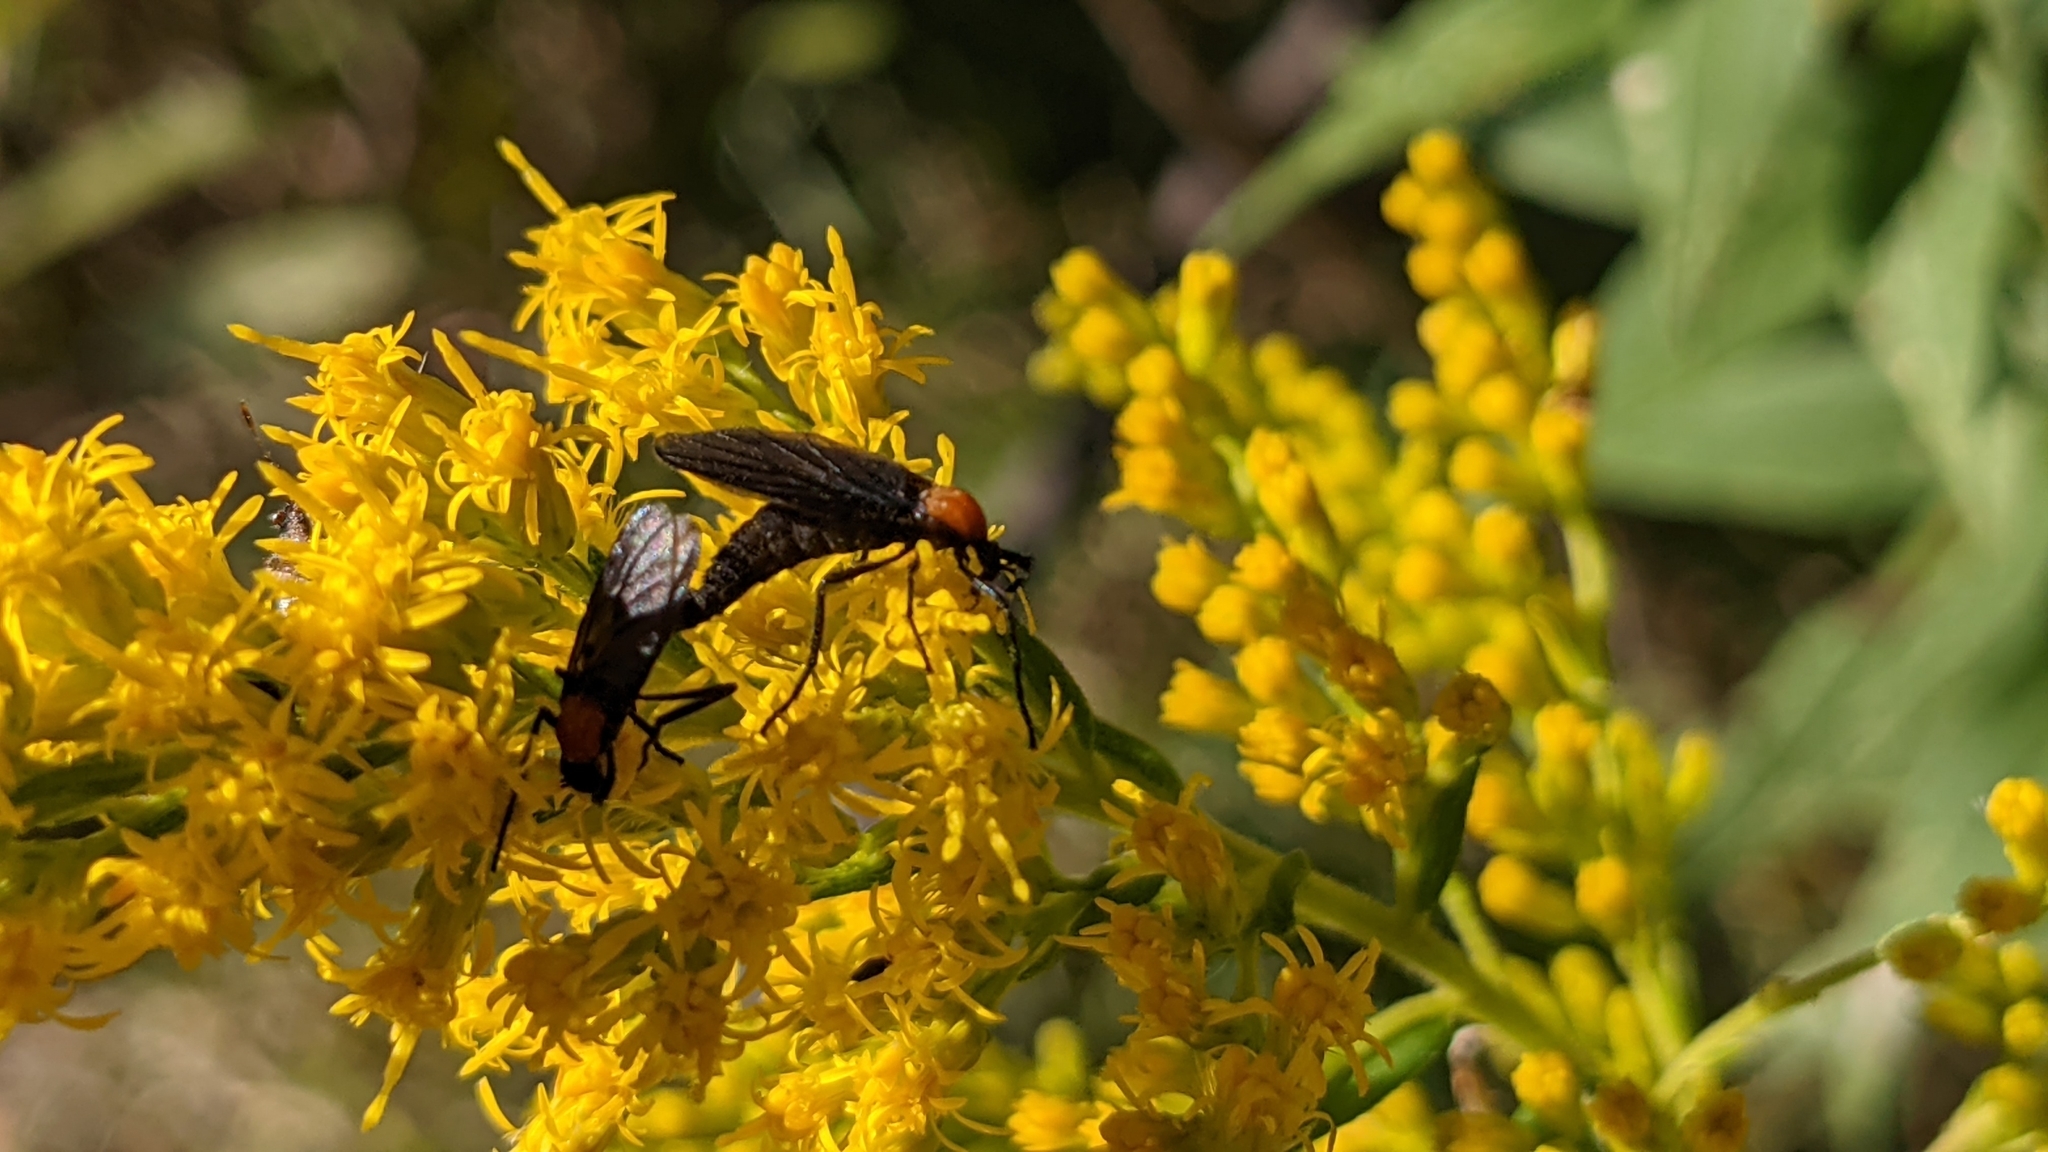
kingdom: Animalia
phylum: Arthropoda
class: Insecta
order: Diptera
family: Bibionidae
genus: Plecia
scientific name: Plecia nearctica
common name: March fly
